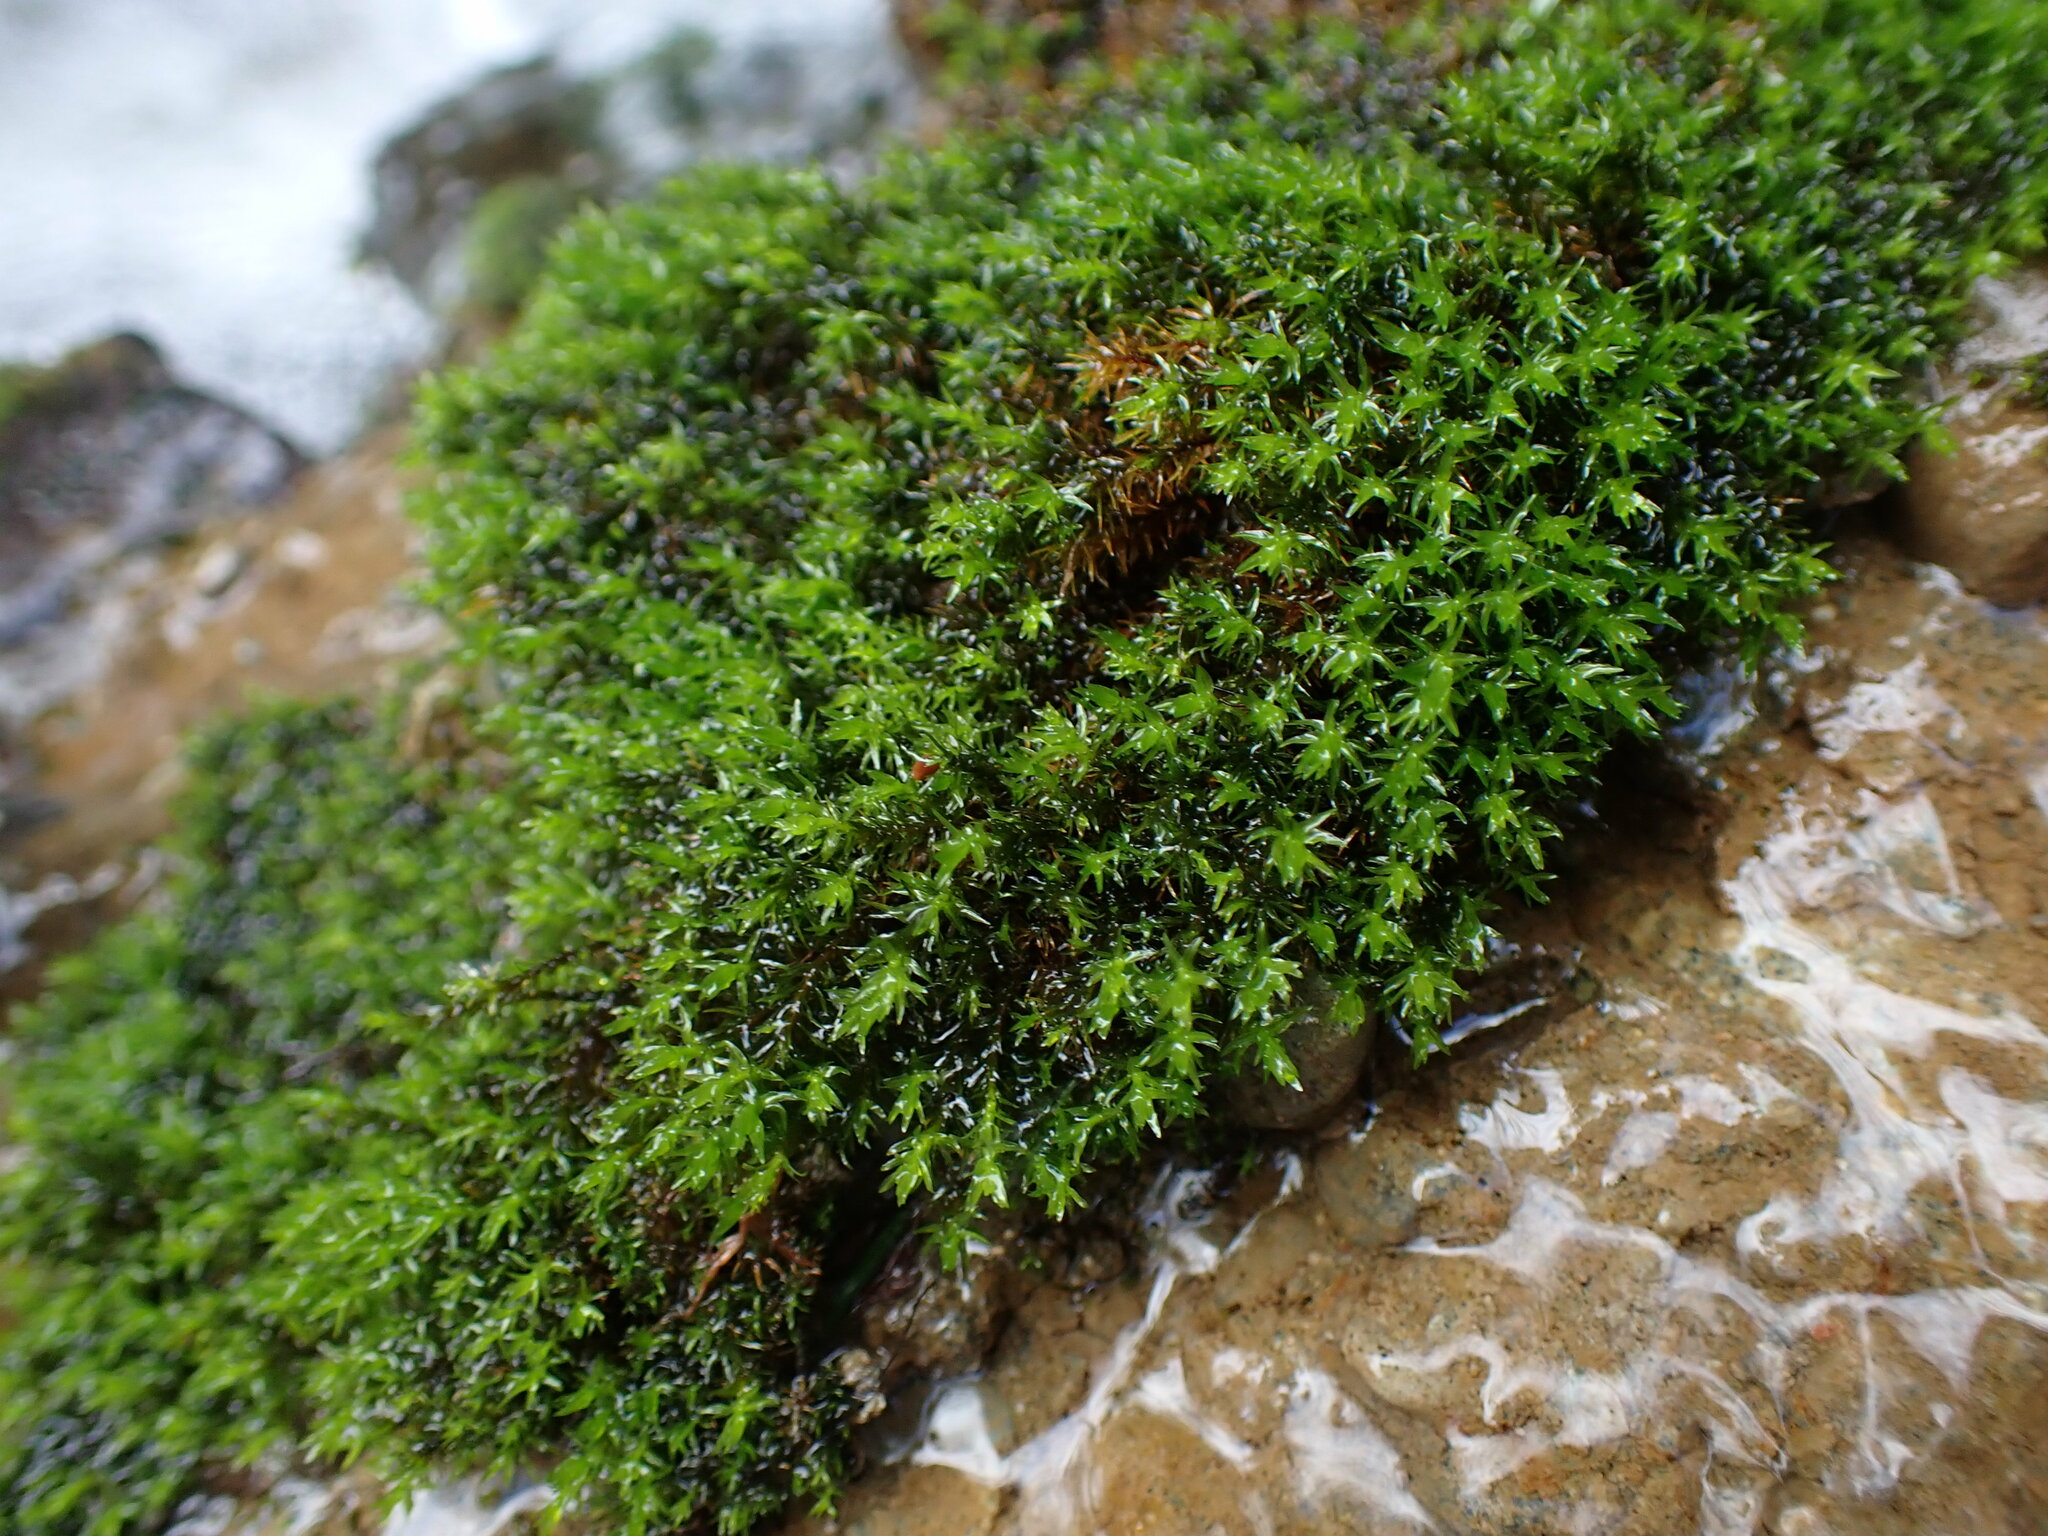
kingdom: Plantae
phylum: Bryophyta
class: Bryopsida
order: Dicranales
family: Aongstroemiaceae
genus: Dichodontium
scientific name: Dichodontium pellucidum
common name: Transparent fork moss
